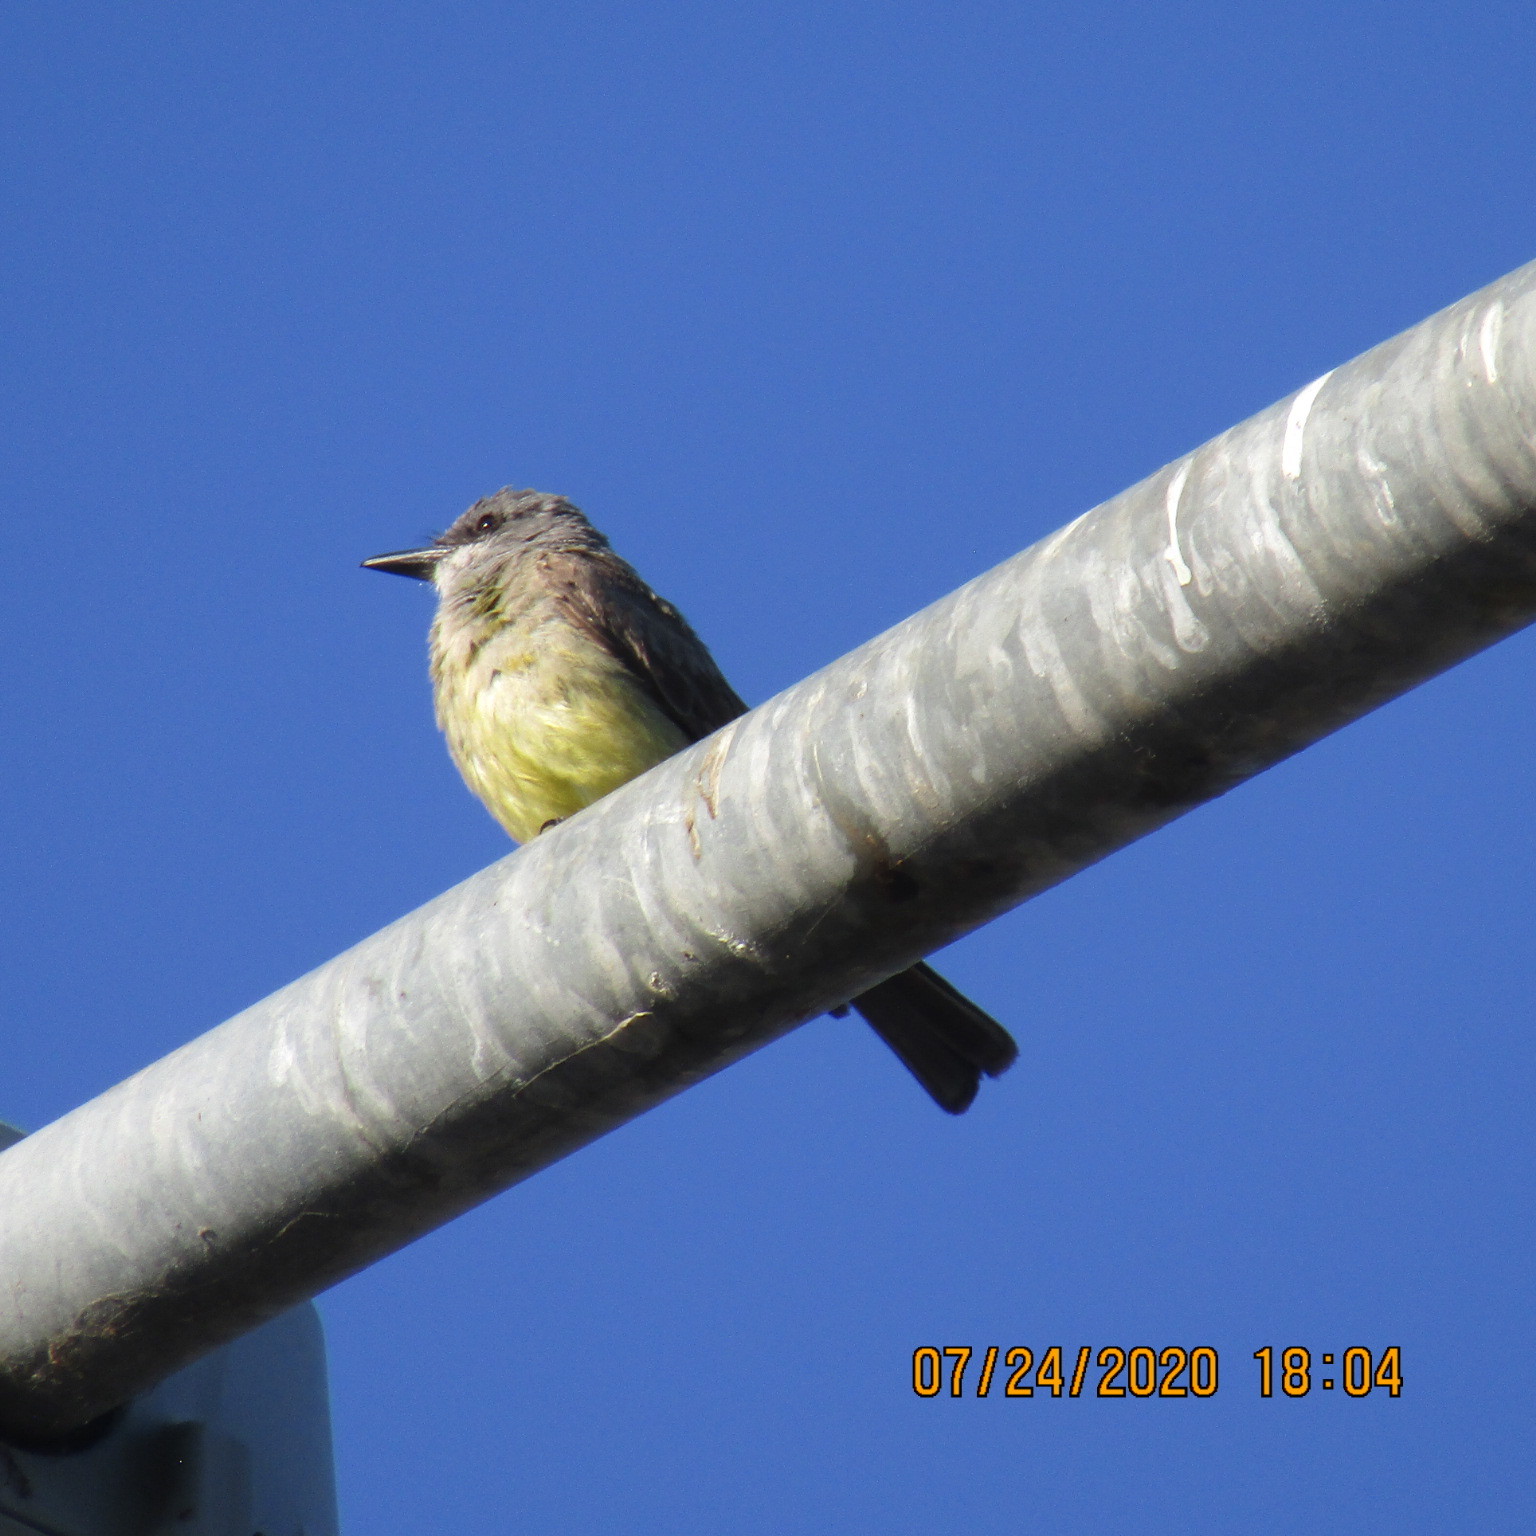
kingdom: Animalia
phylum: Chordata
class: Aves
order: Passeriformes
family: Tyrannidae
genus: Tyrannus
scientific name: Tyrannus vociferans
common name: Cassin's kingbird
